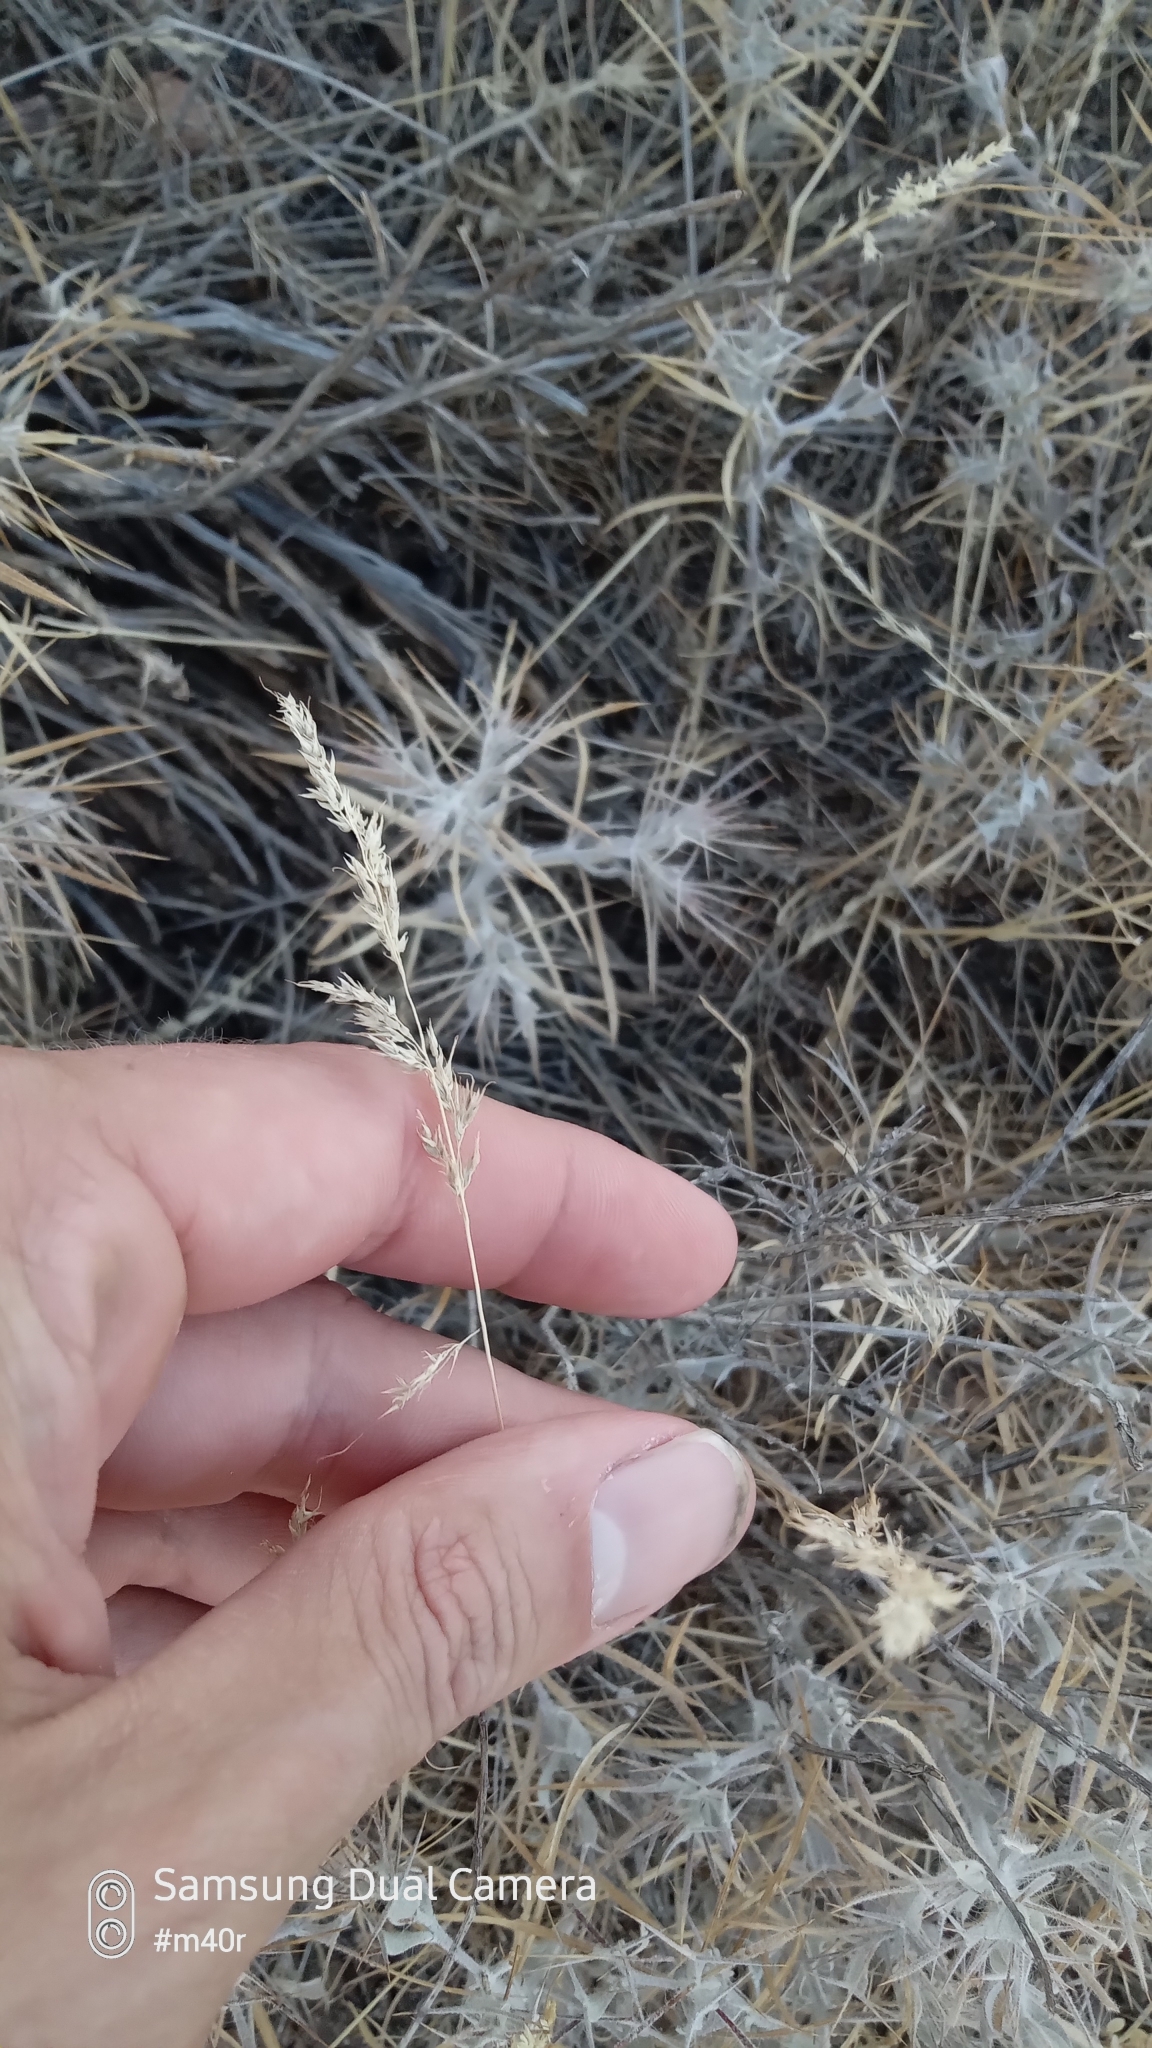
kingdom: Plantae
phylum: Tracheophyta
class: Liliopsida
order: Poales
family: Poaceae
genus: Poa
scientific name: Poa bulbosa
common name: Bulbous bluegrass
